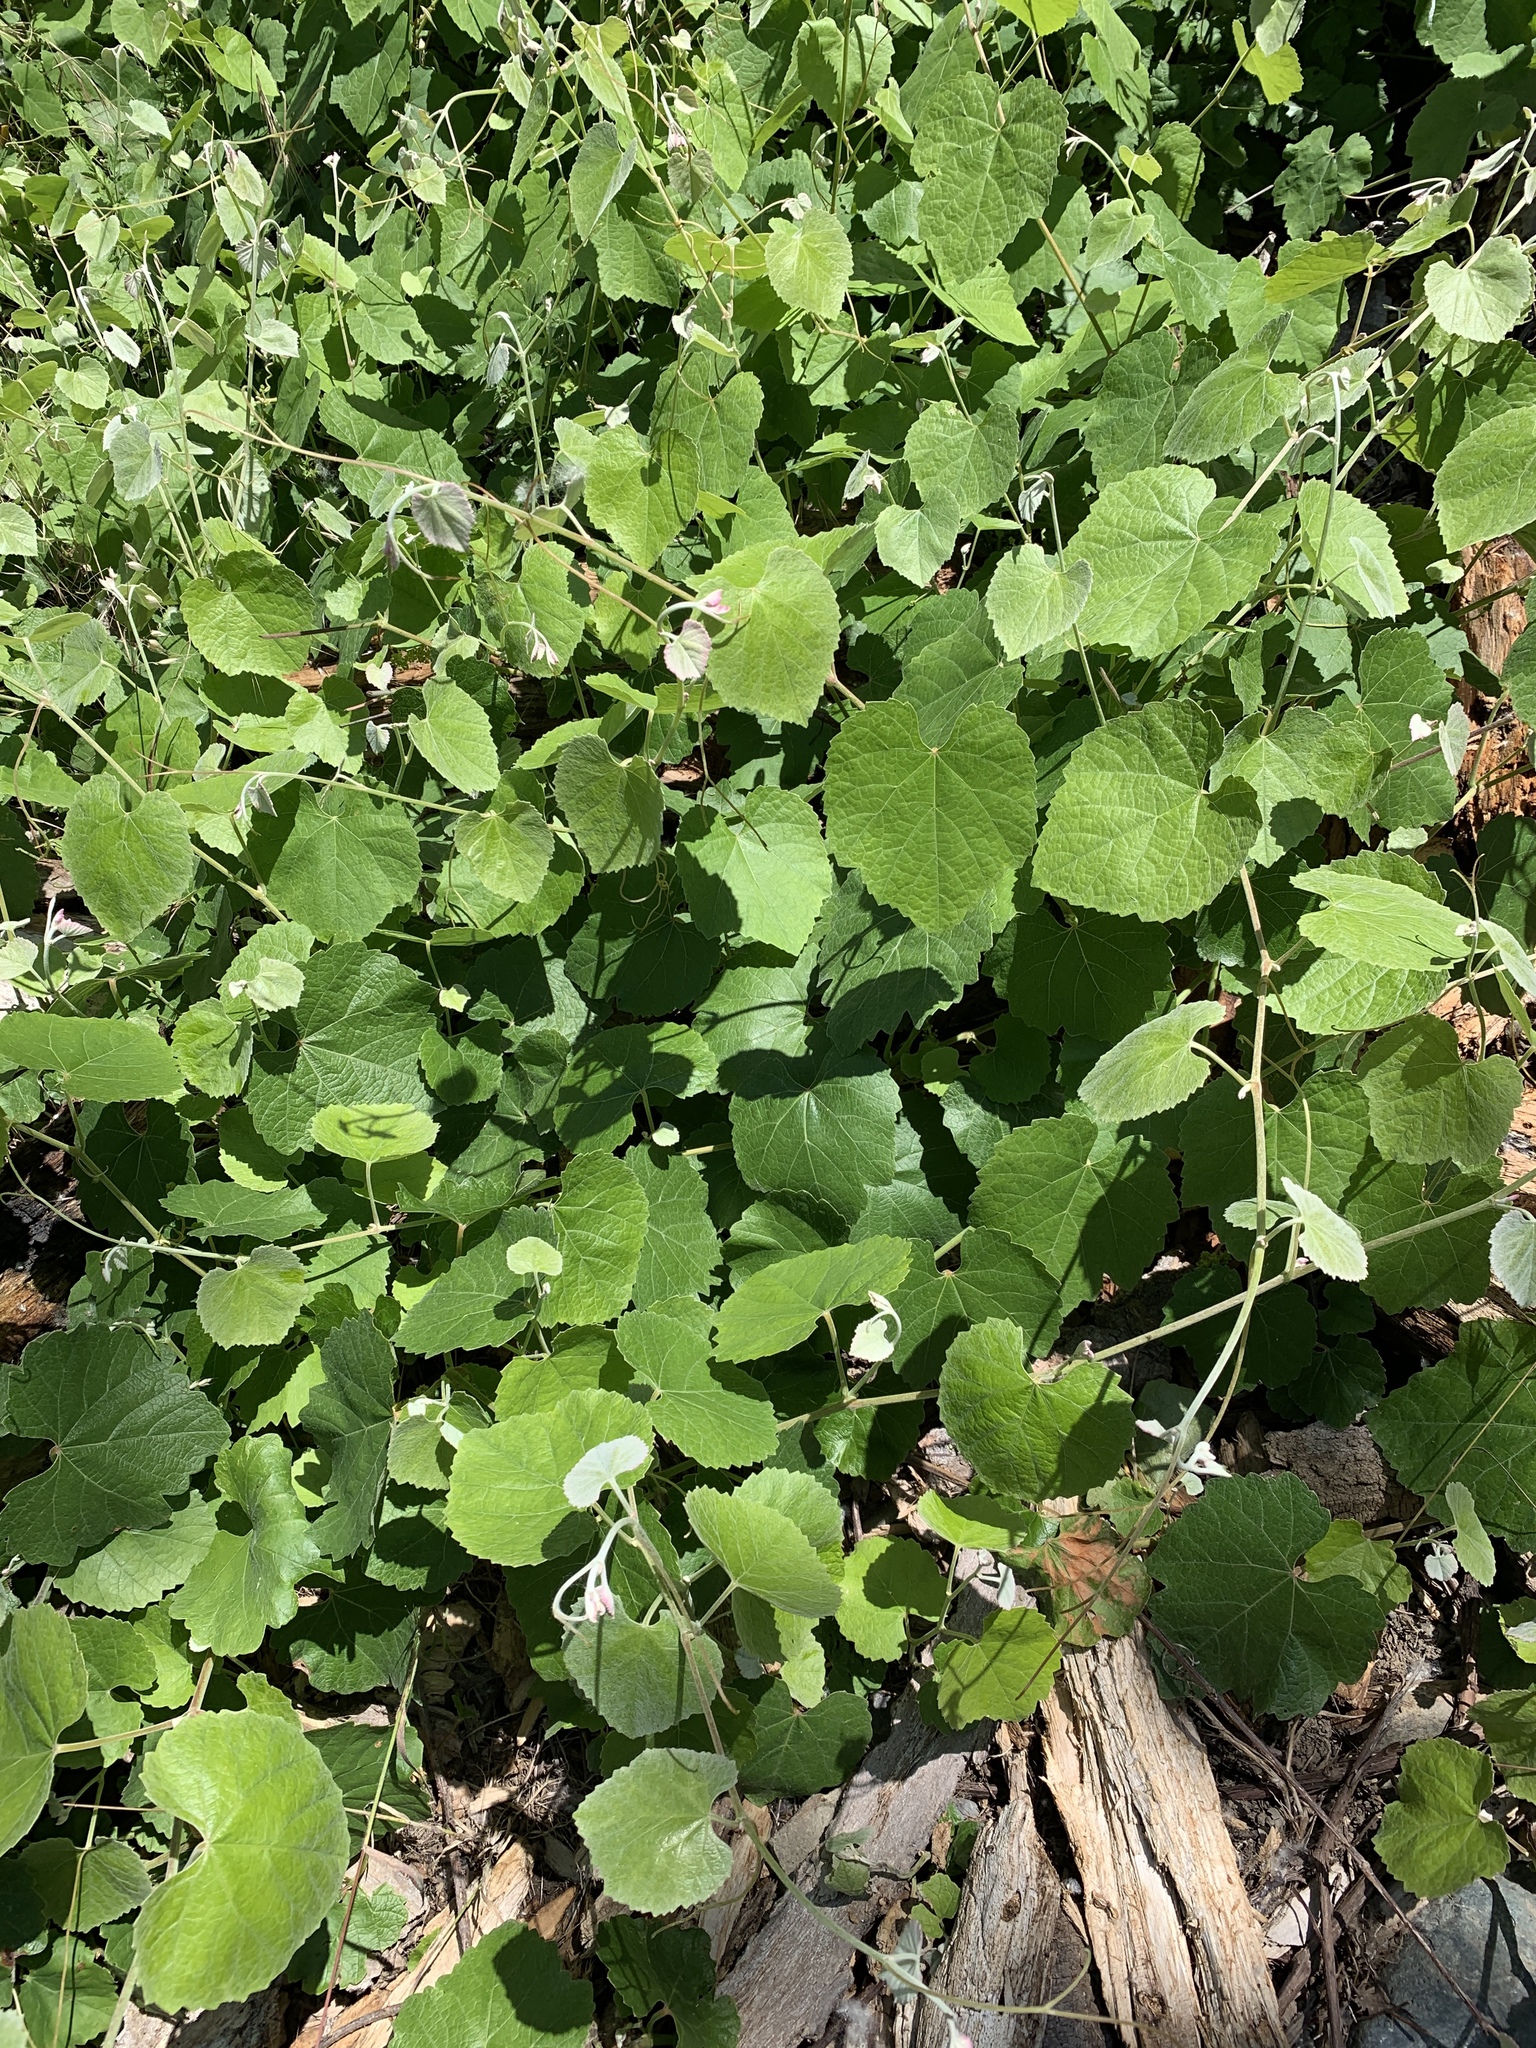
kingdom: Plantae
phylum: Tracheophyta
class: Magnoliopsida
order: Vitales
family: Vitaceae
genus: Vitis
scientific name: Vitis californica
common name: California wild grape
